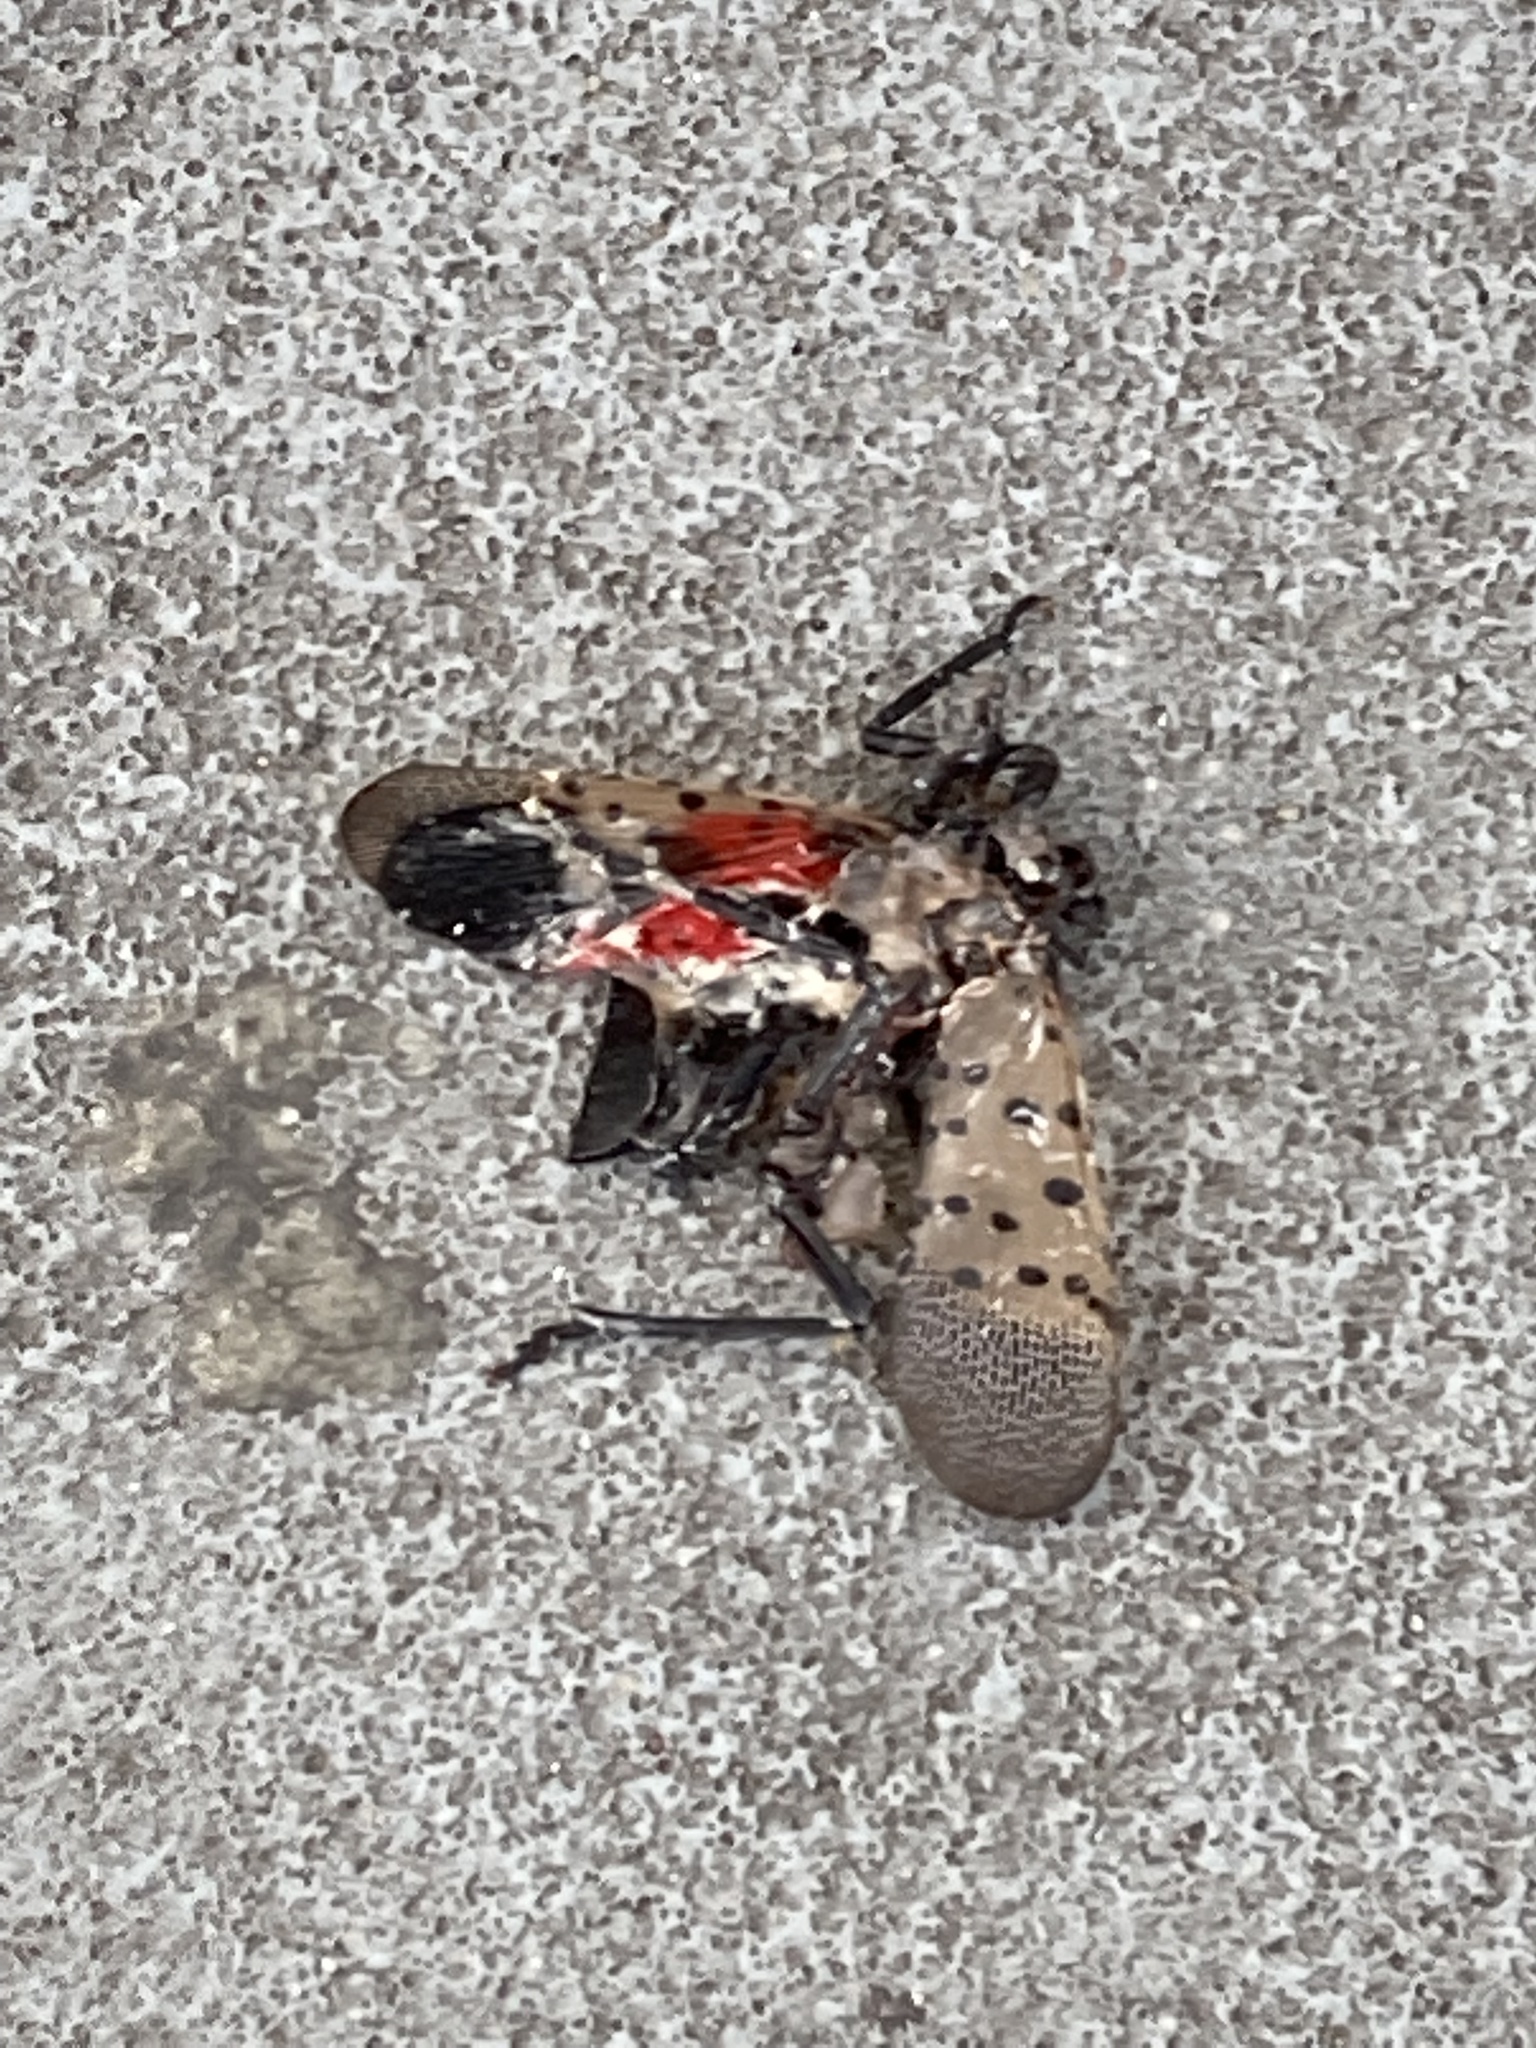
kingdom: Animalia
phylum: Arthropoda
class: Insecta
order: Hemiptera
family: Fulgoridae
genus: Lycorma
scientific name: Lycorma delicatula
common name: Spotted lanternfly
